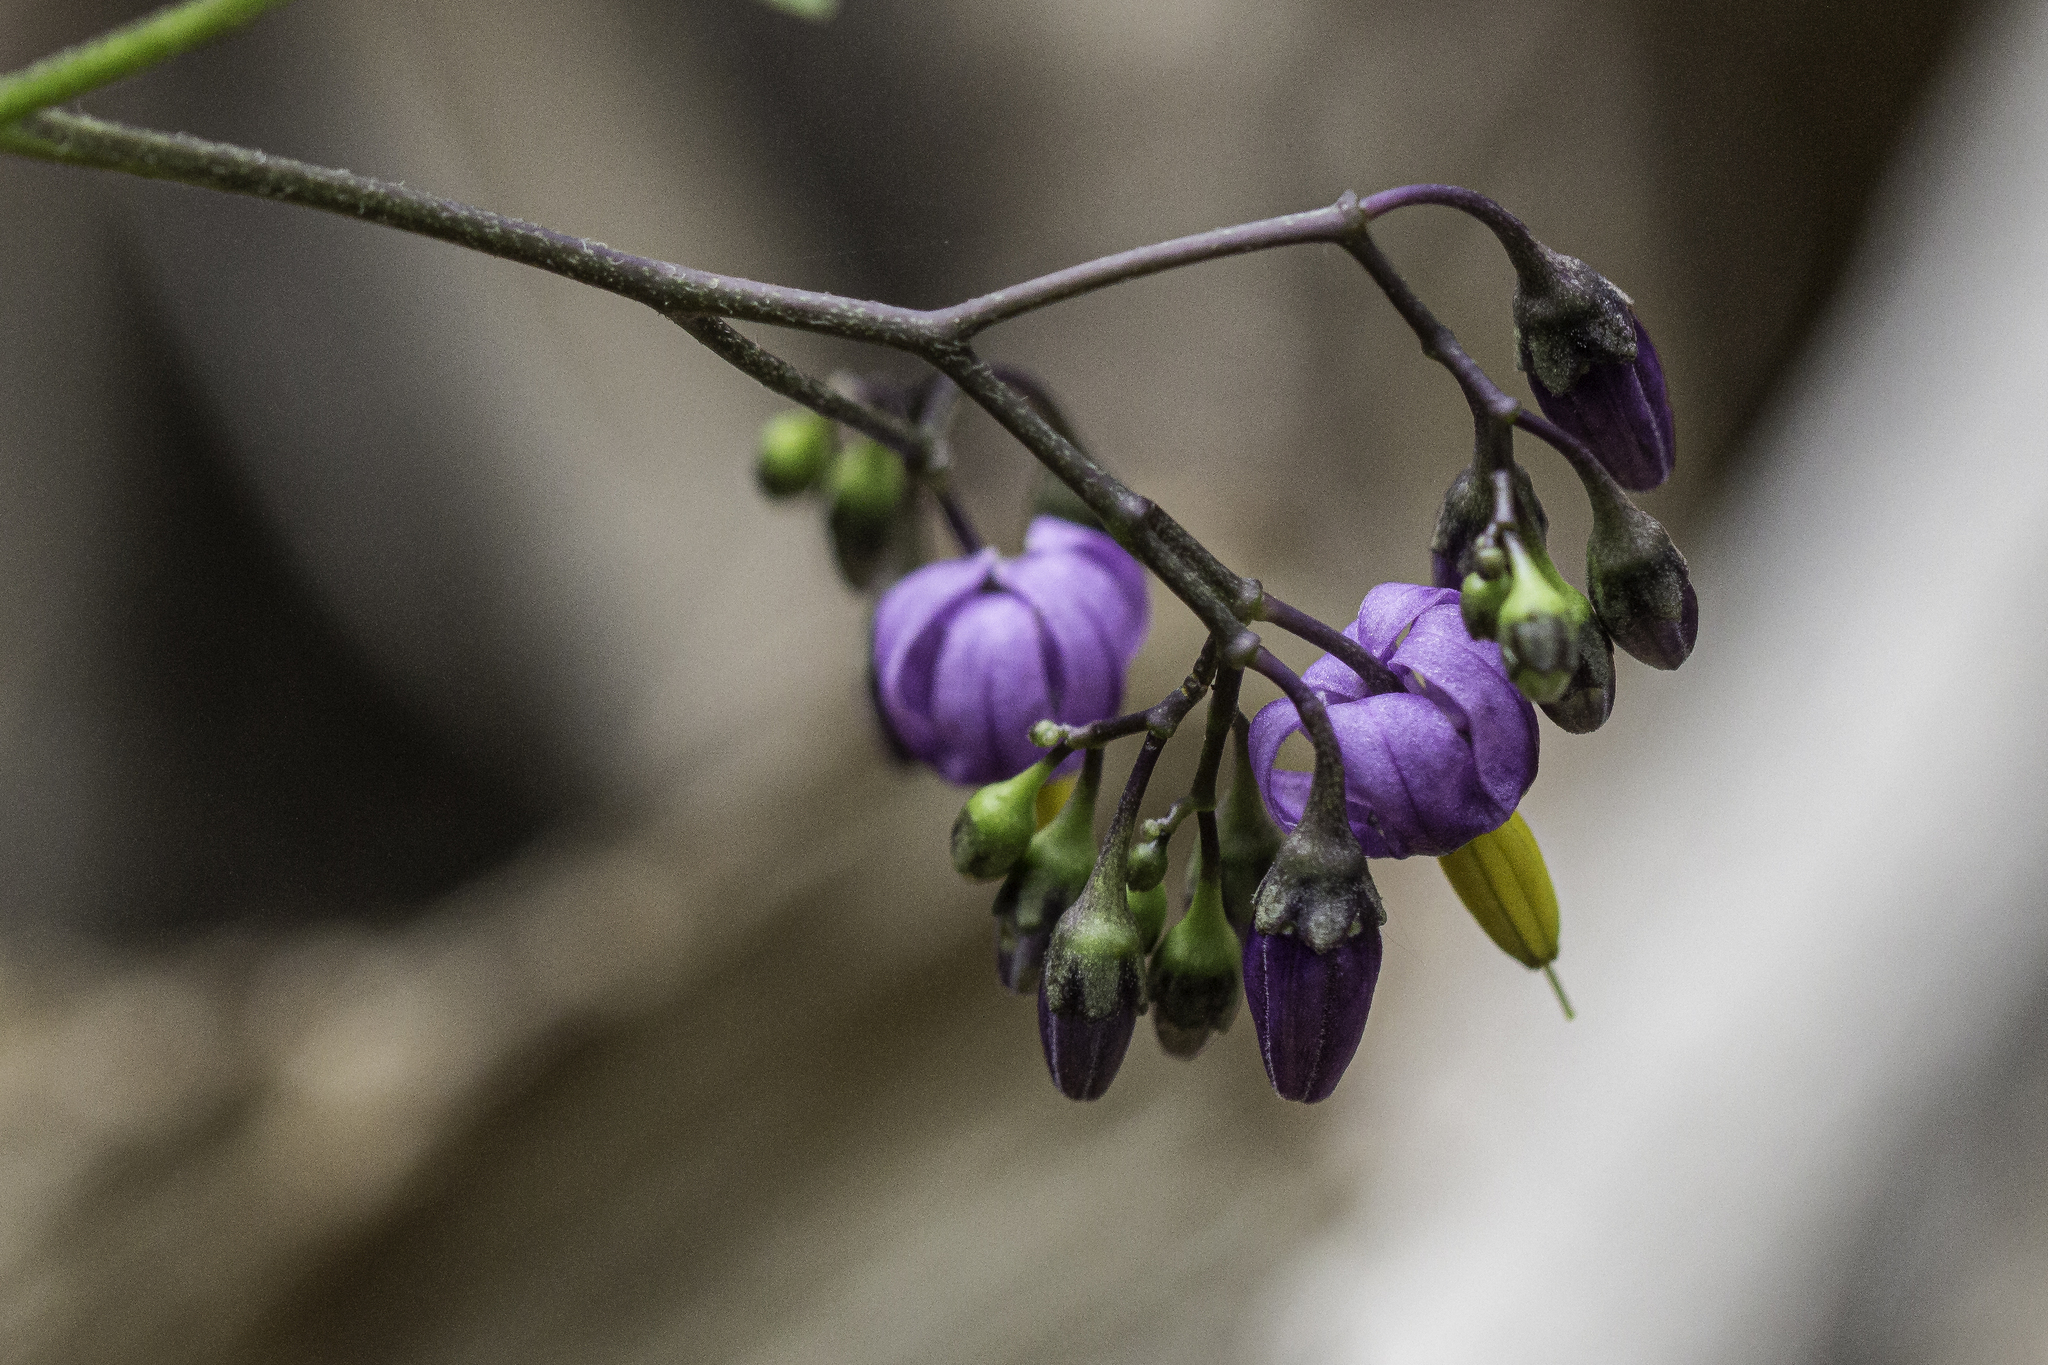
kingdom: Plantae
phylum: Tracheophyta
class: Magnoliopsida
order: Solanales
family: Solanaceae
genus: Solanum
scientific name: Solanum dulcamara
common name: Climbing nightshade
